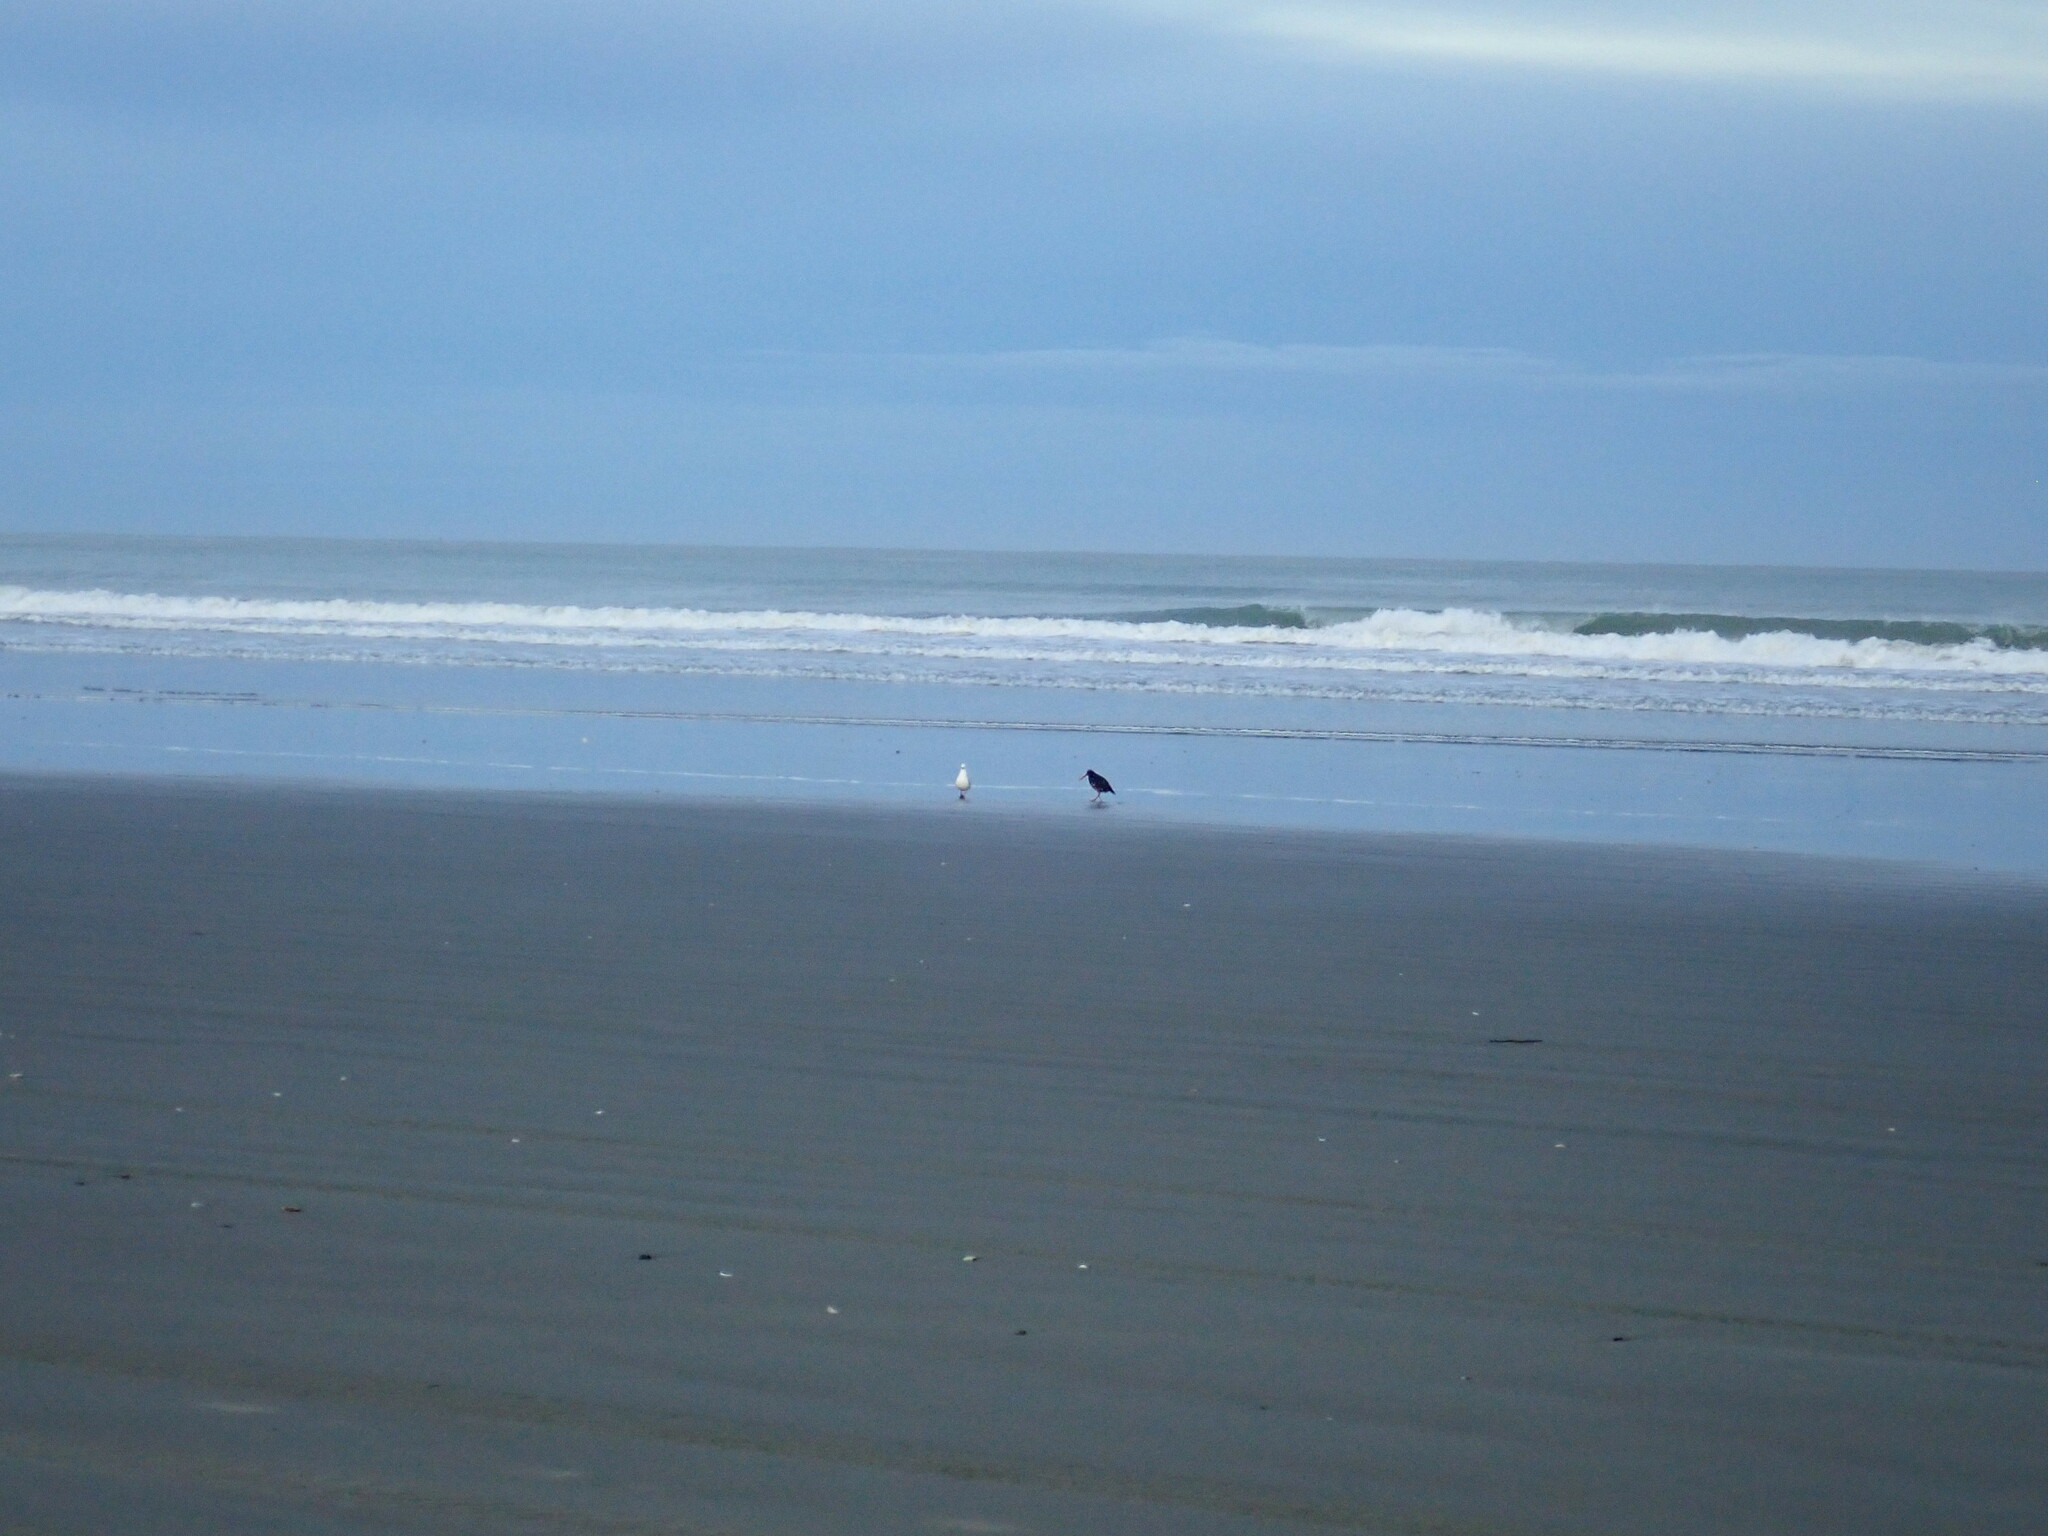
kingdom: Animalia
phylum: Chordata
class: Aves
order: Charadriiformes
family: Haematopodidae
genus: Haematopus
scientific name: Haematopus unicolor
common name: Variable oystercatcher
